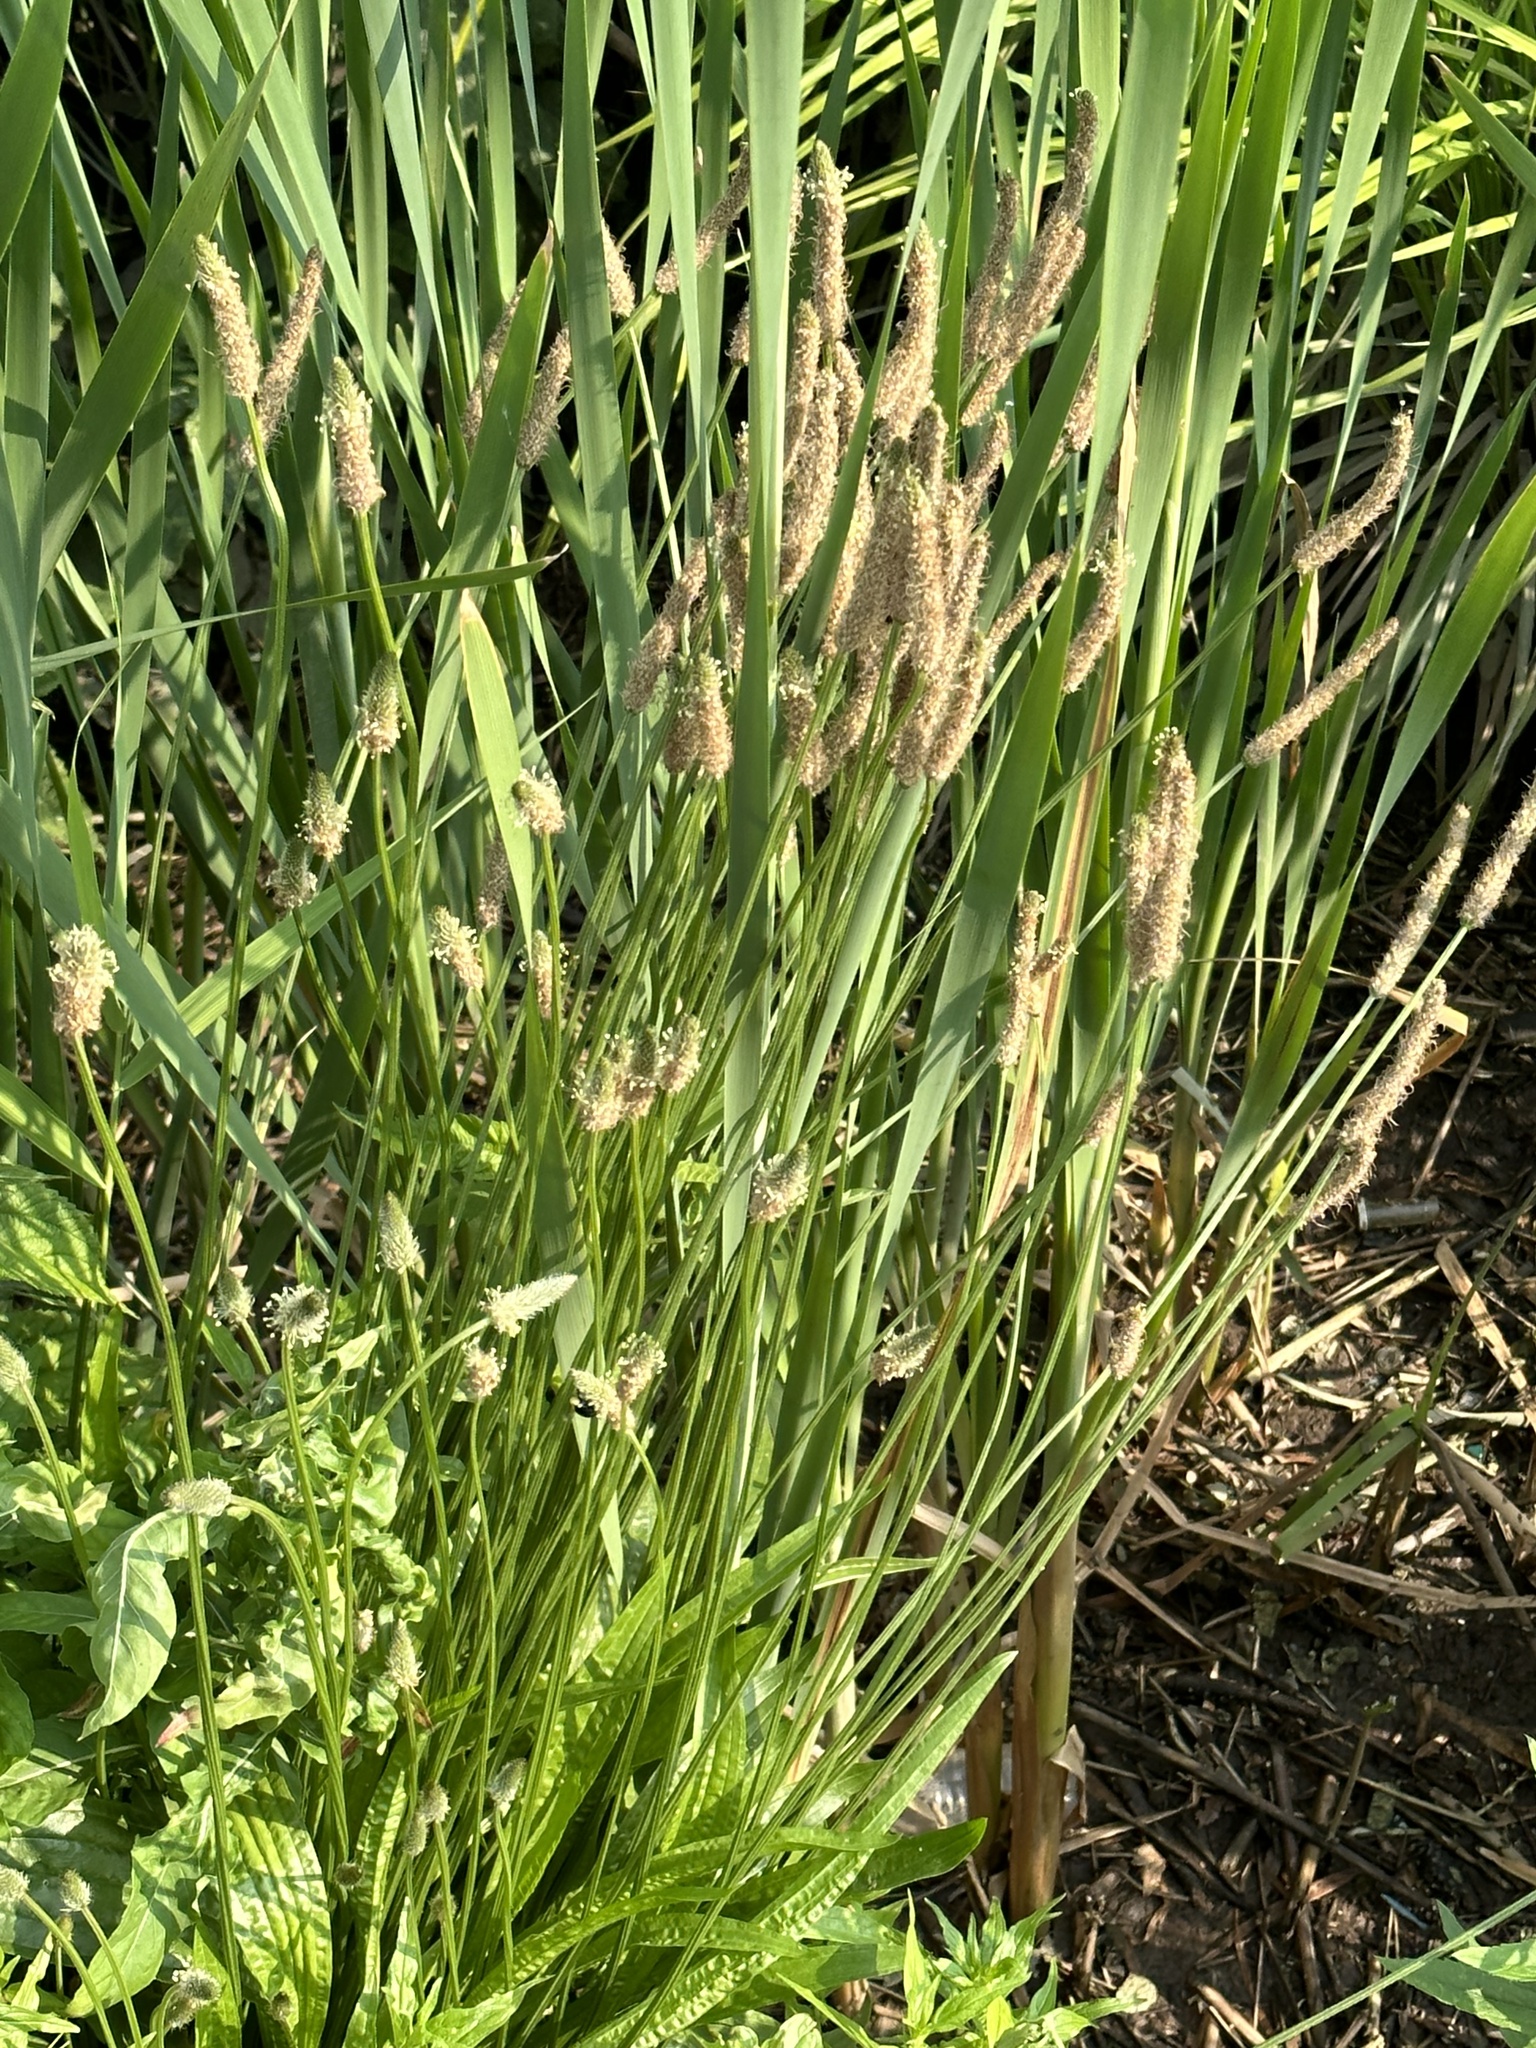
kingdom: Plantae
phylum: Tracheophyta
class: Magnoliopsida
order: Lamiales
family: Plantaginaceae
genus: Plantago
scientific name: Plantago lanceolata
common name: Ribwort plantain
